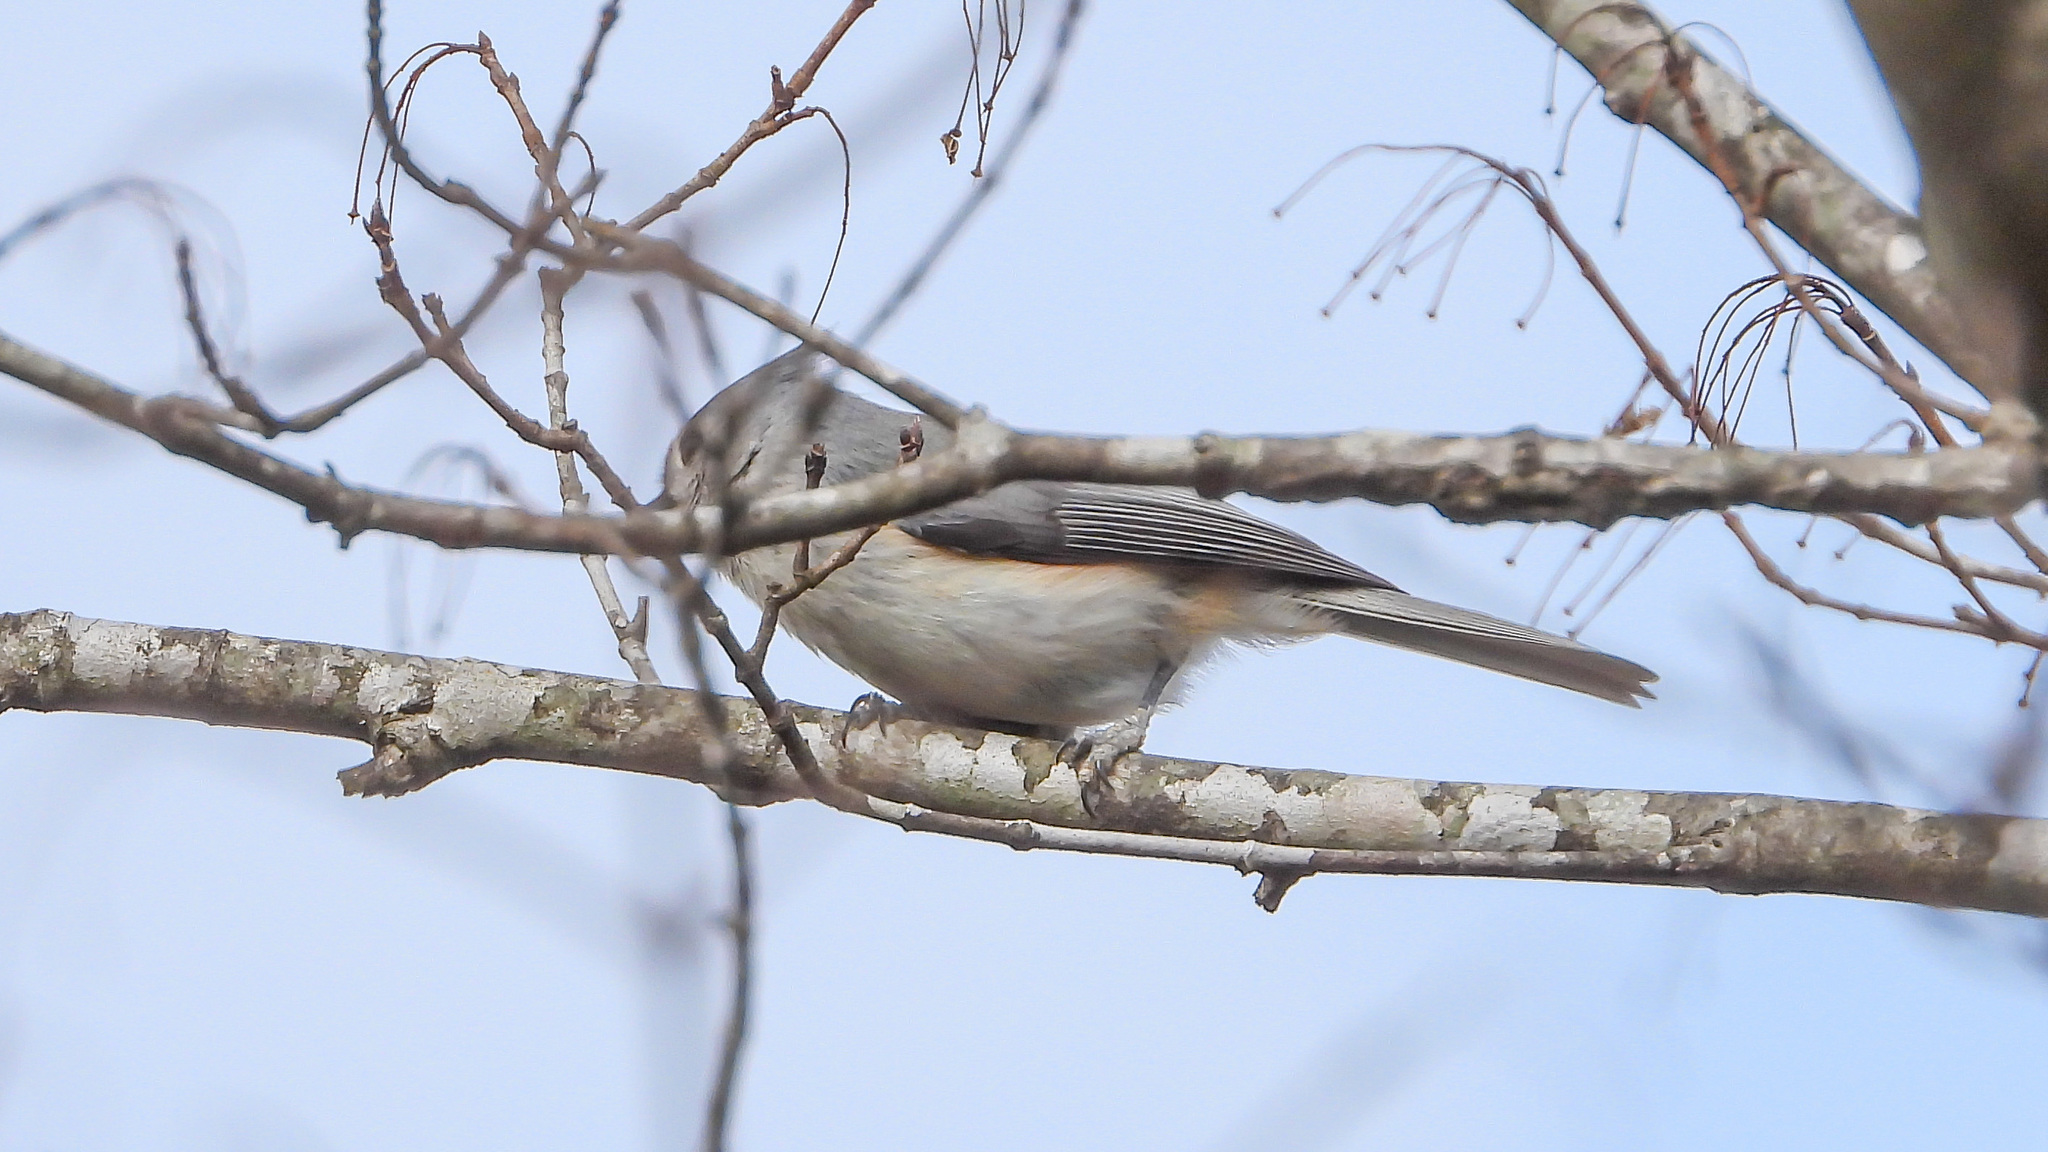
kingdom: Animalia
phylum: Chordata
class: Aves
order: Passeriformes
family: Paridae
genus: Baeolophus
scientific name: Baeolophus bicolor
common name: Tufted titmouse
